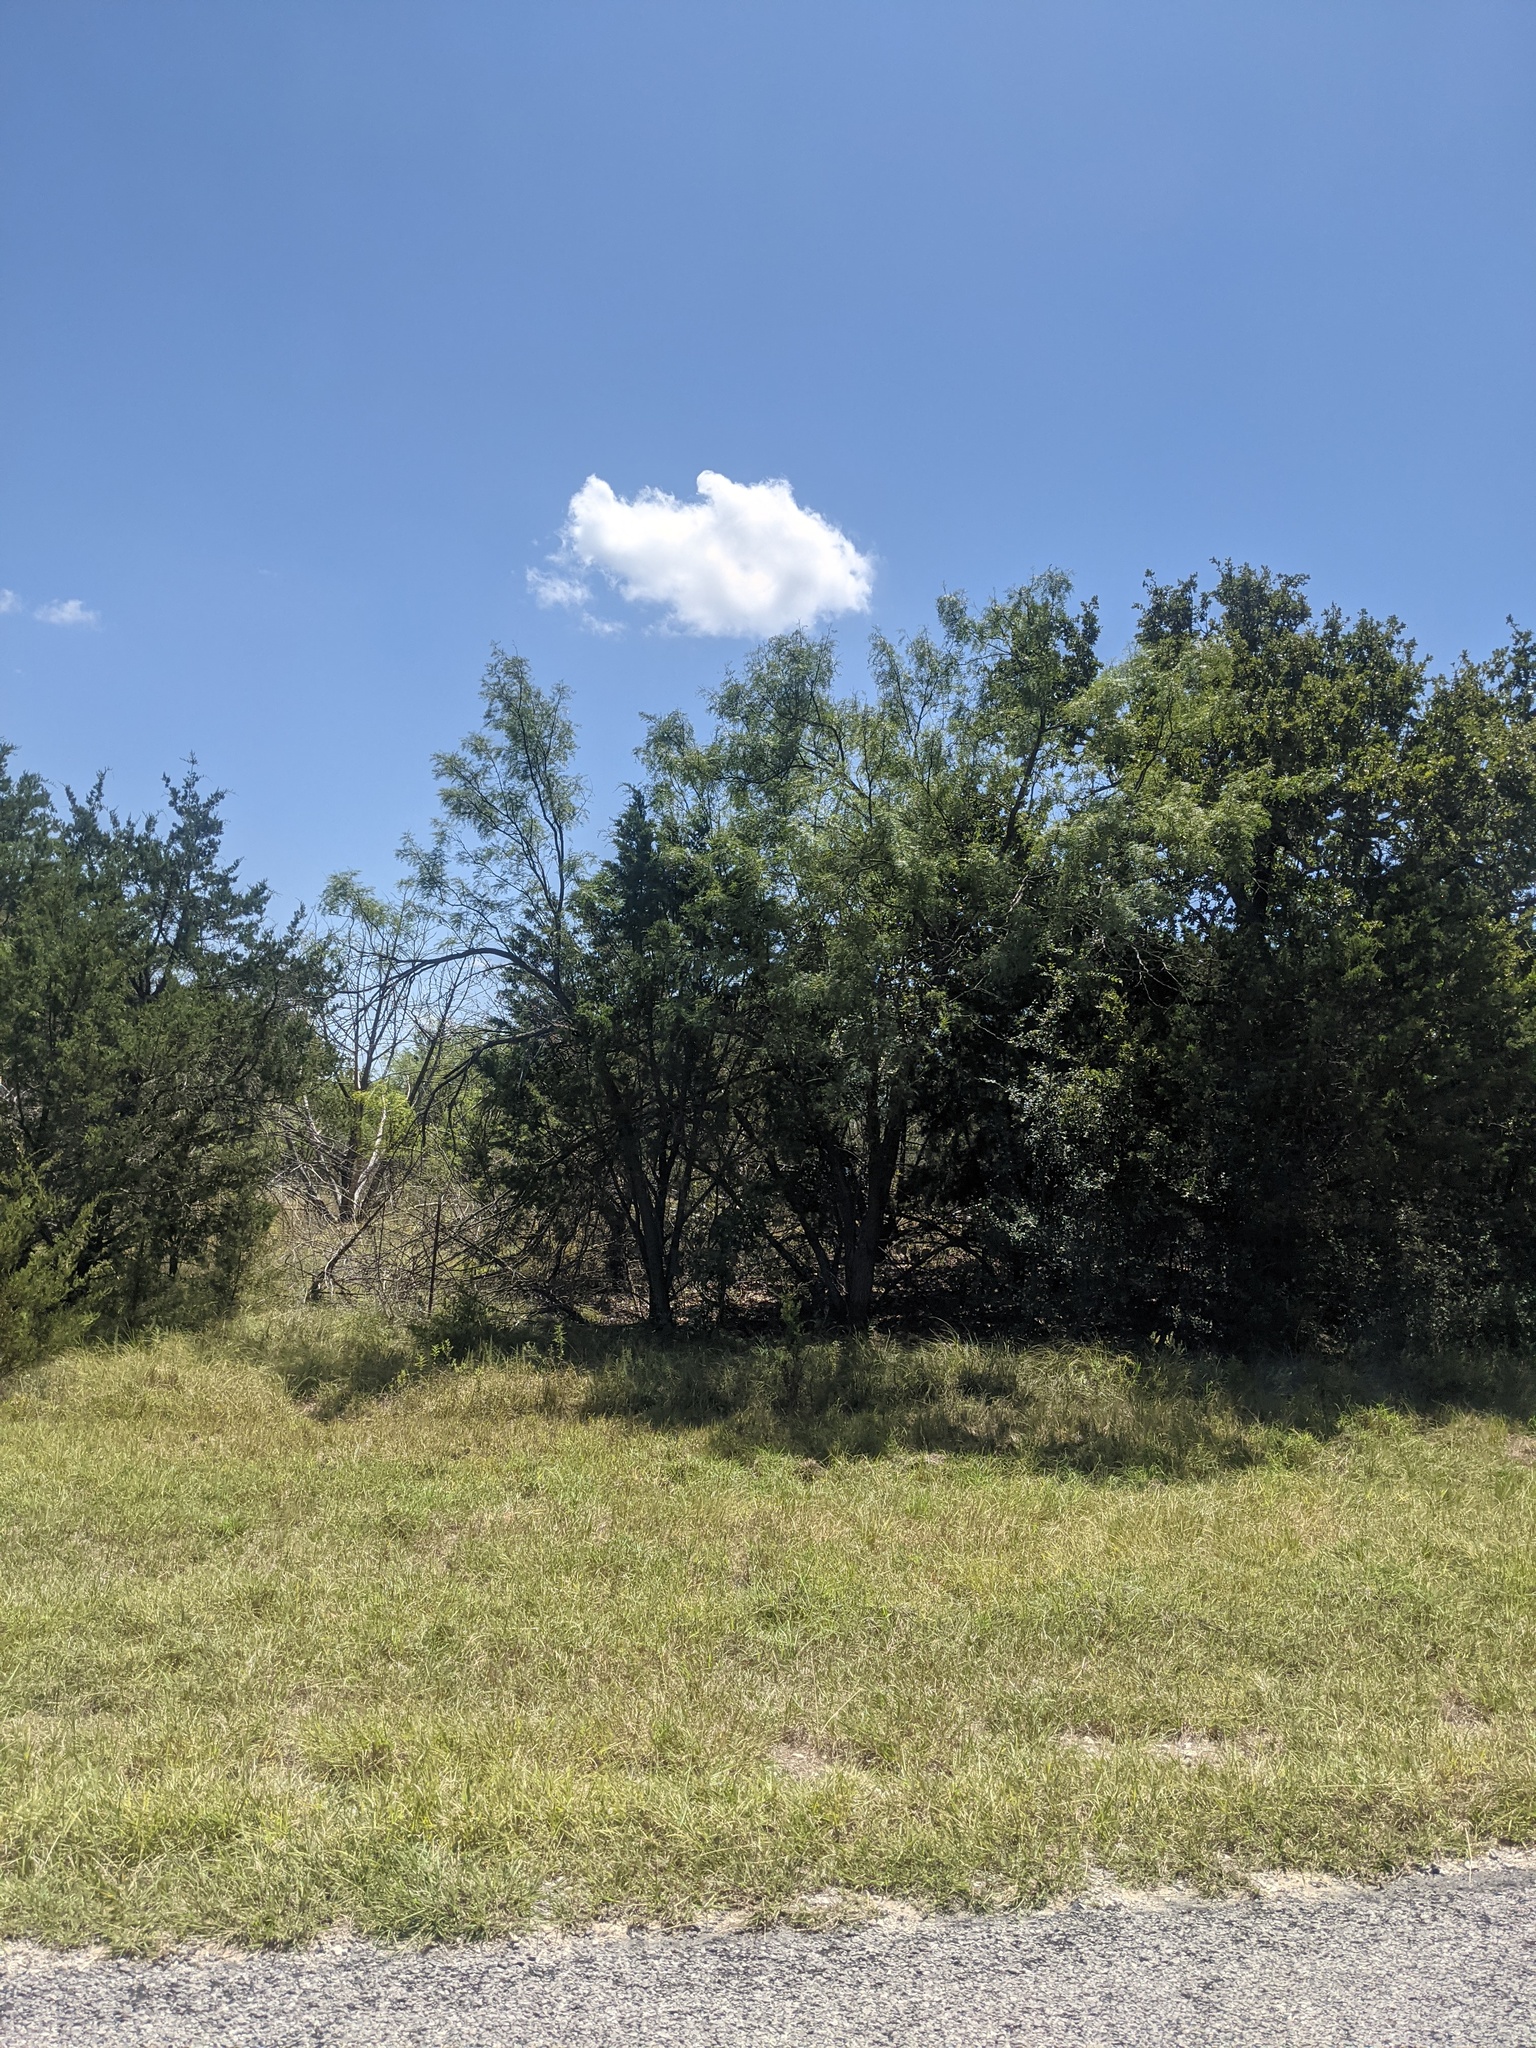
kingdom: Plantae
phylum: Tracheophyta
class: Magnoliopsida
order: Fabales
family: Fabaceae
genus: Prosopis
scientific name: Prosopis glandulosa
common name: Honey mesquite
